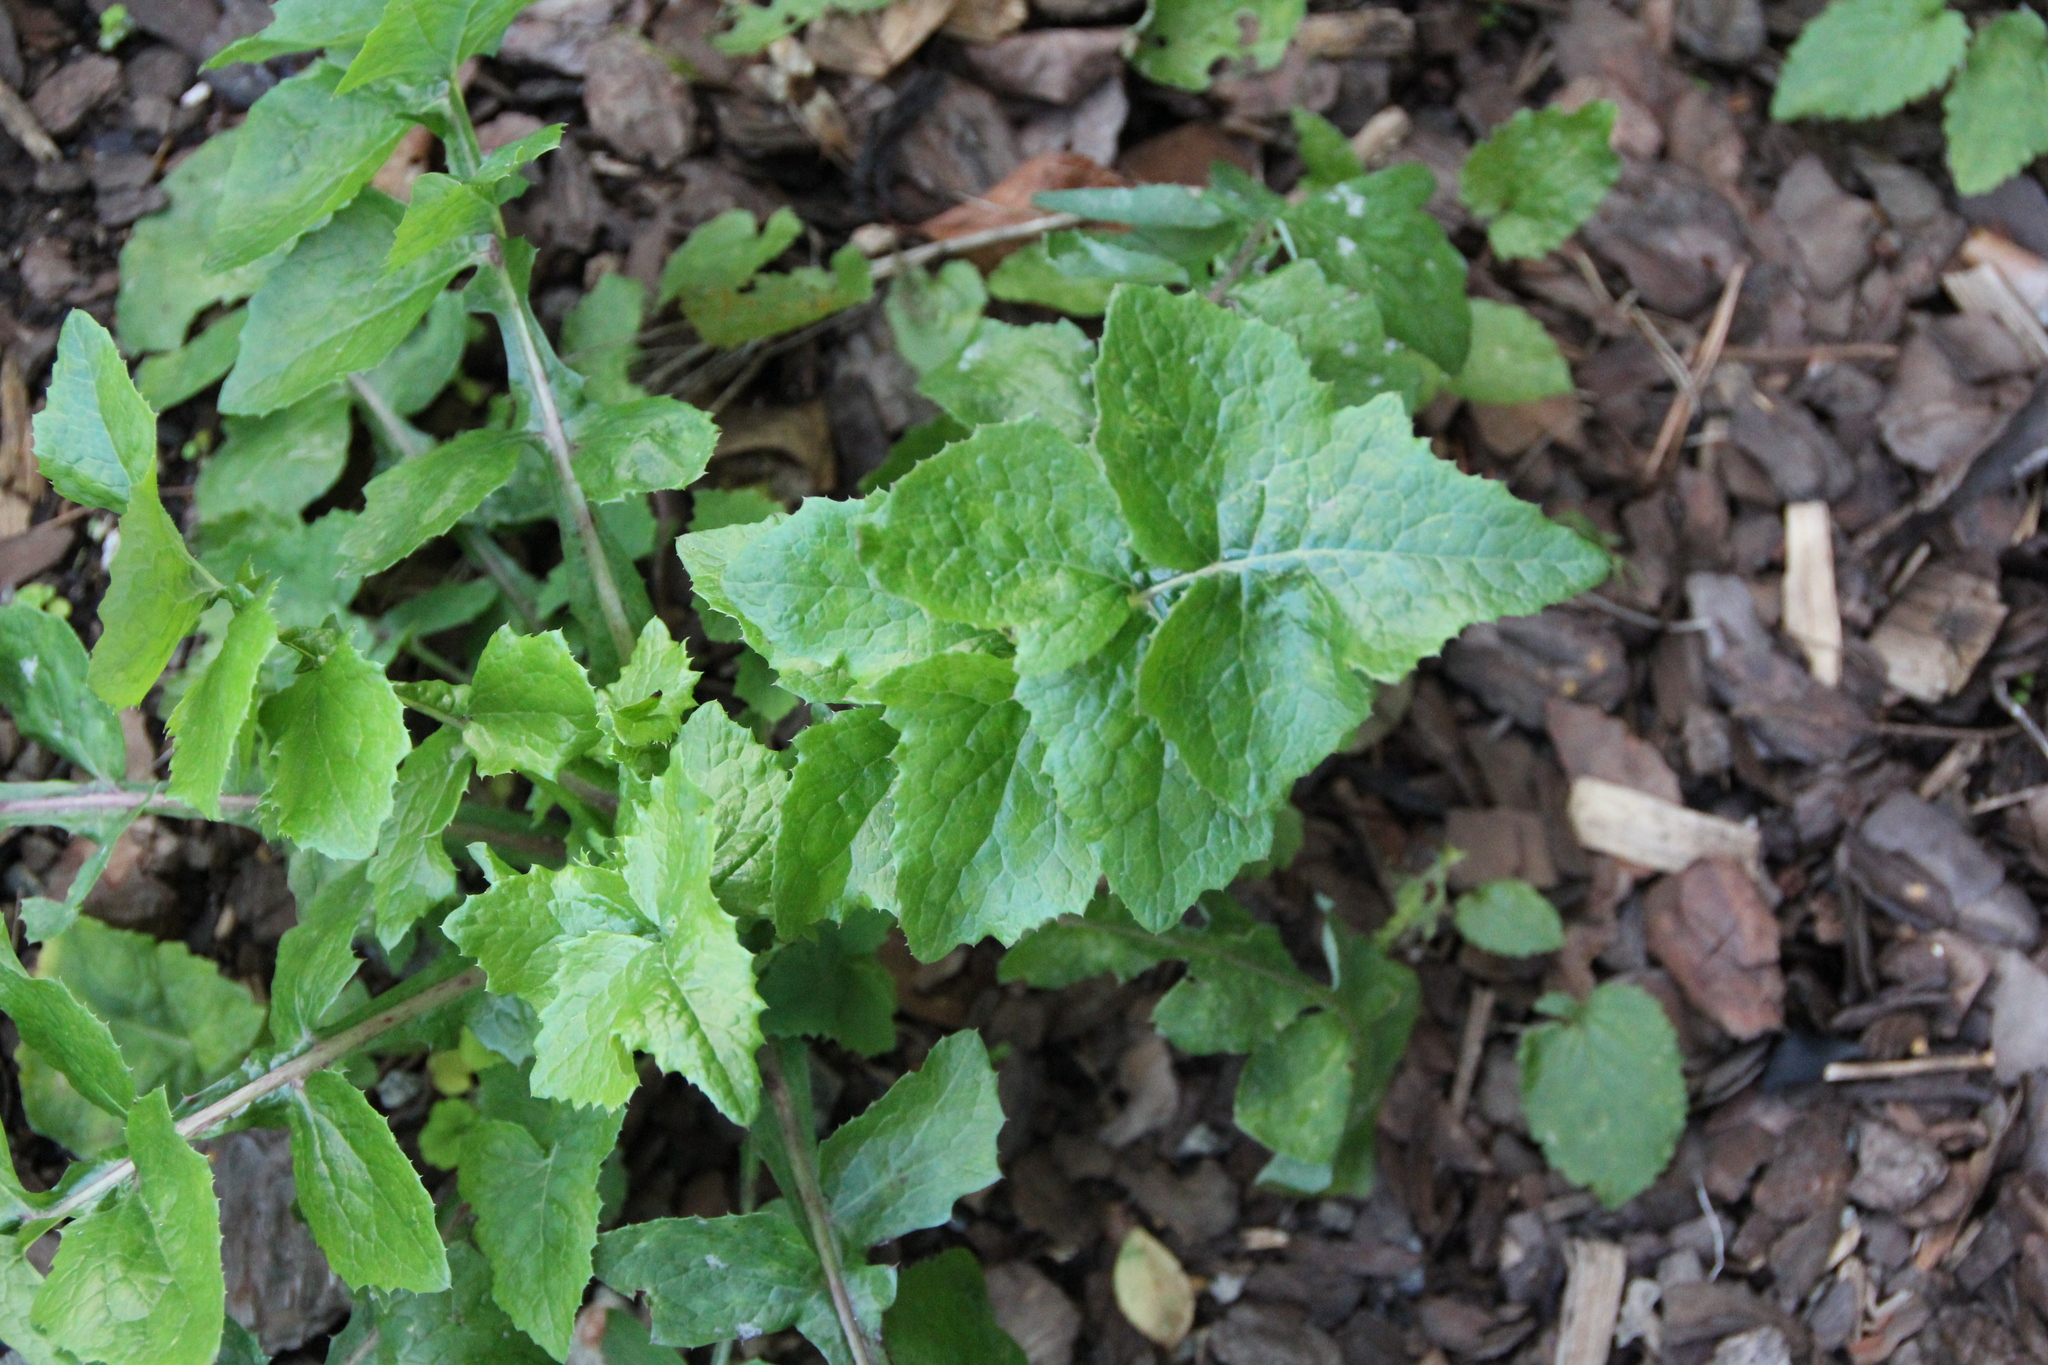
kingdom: Plantae
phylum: Tracheophyta
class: Magnoliopsida
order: Asterales
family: Asteraceae
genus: Sonchus
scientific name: Sonchus oleraceus
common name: Common sowthistle
